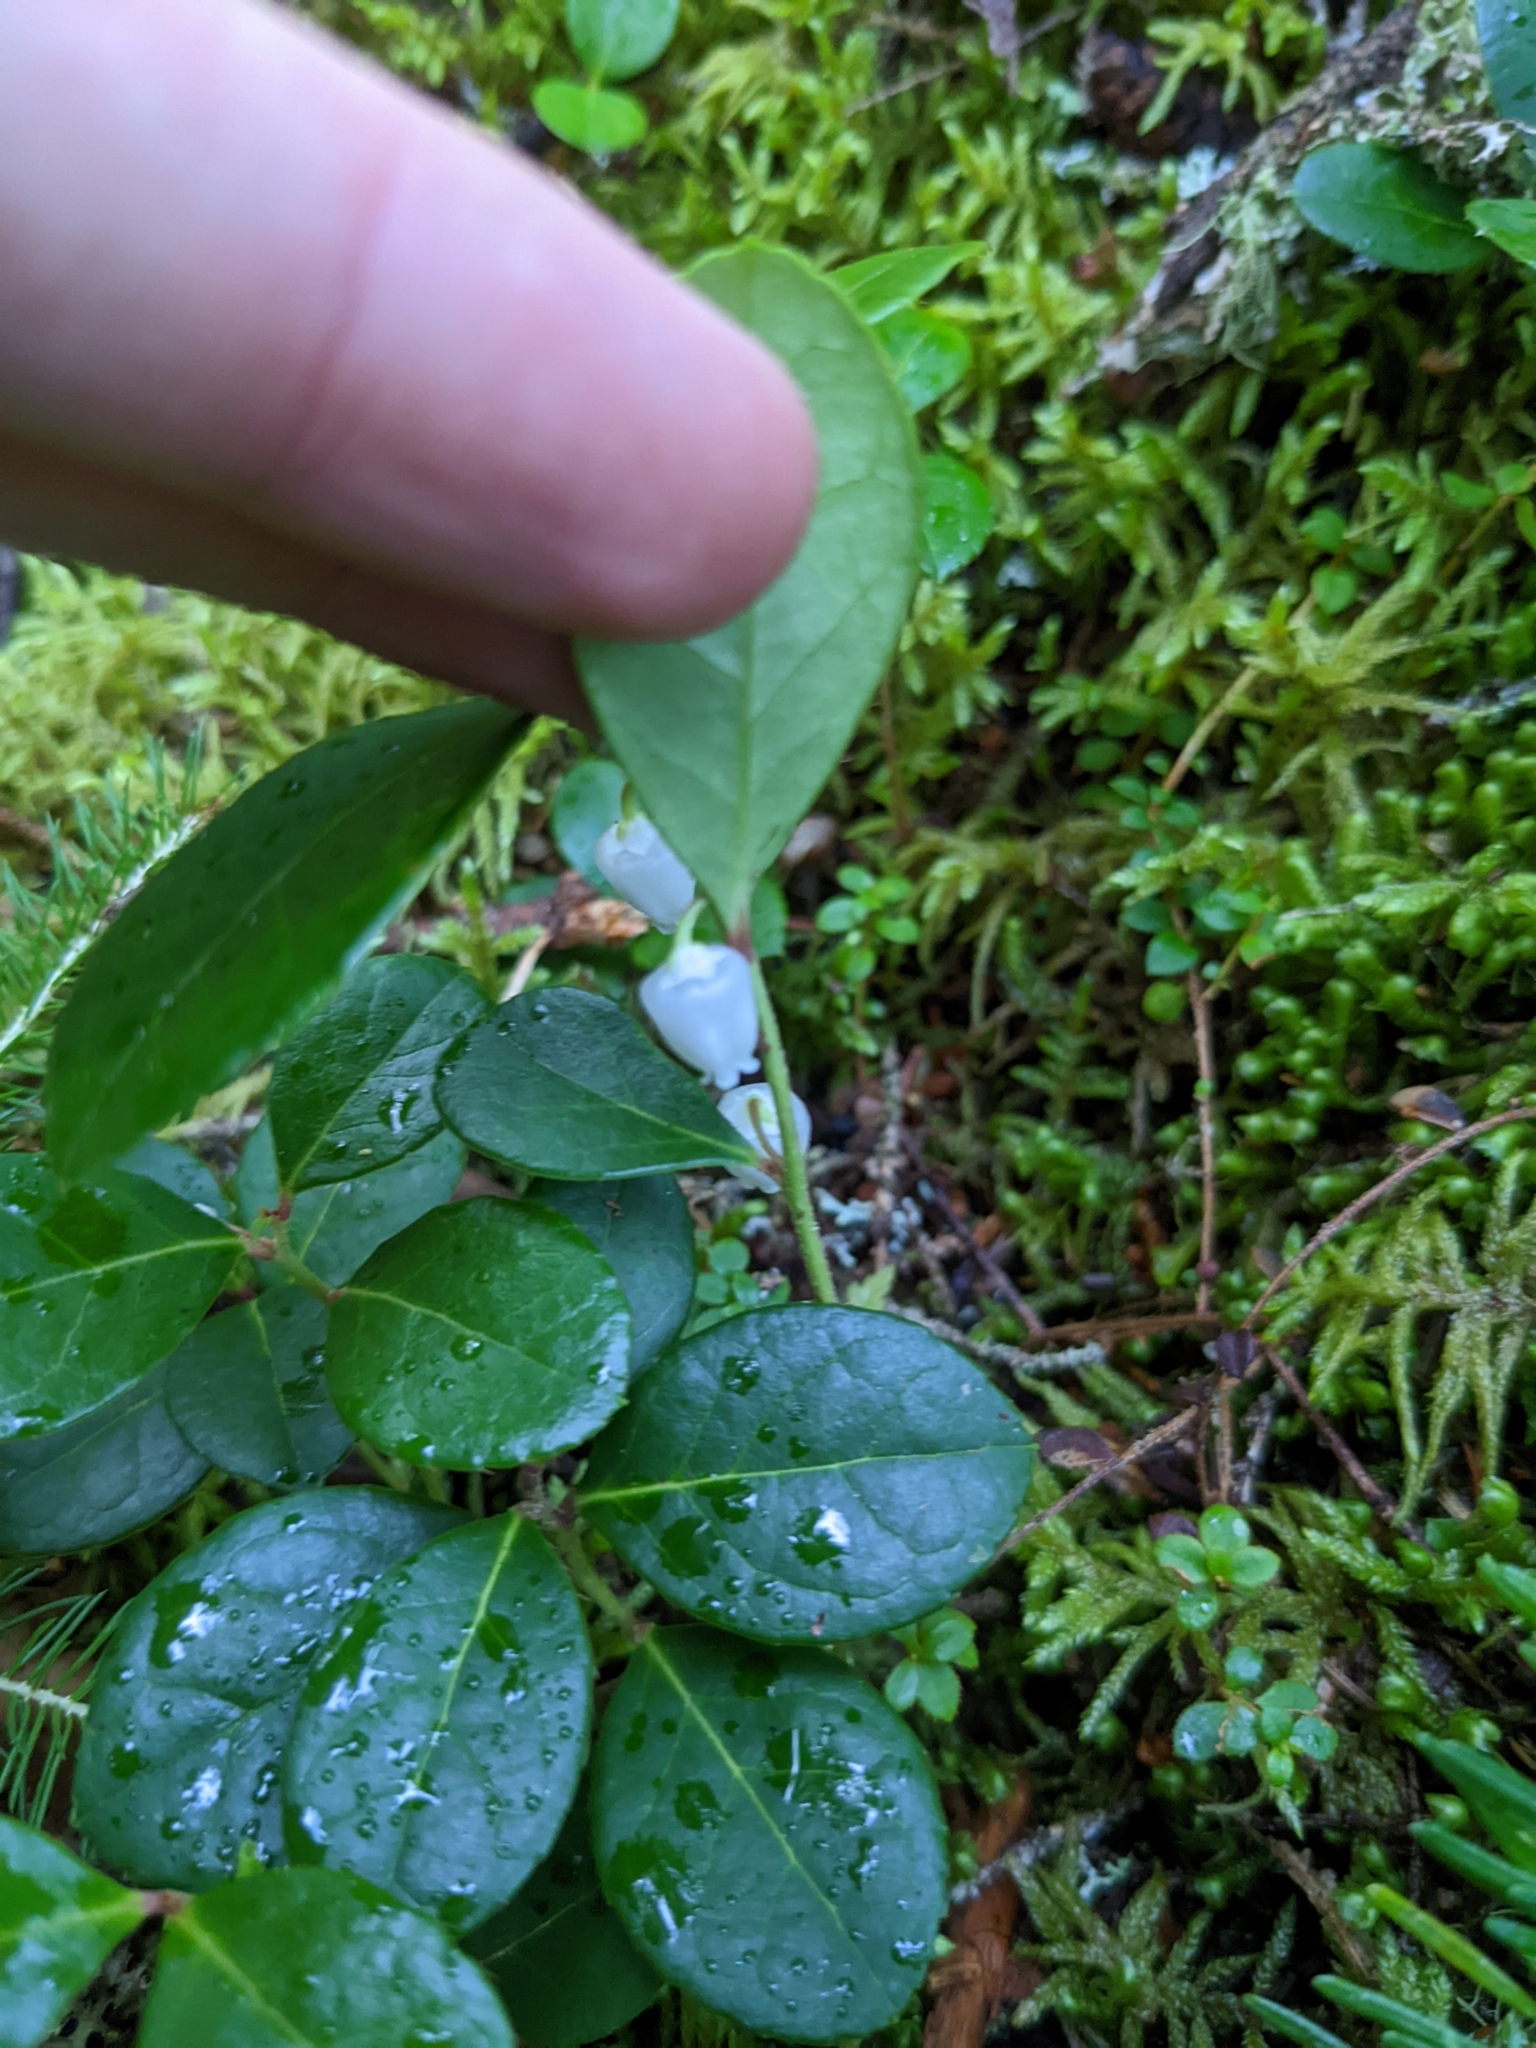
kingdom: Plantae
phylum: Tracheophyta
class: Magnoliopsida
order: Ericales
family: Ericaceae
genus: Gaultheria
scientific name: Gaultheria procumbens
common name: Checkerberry
